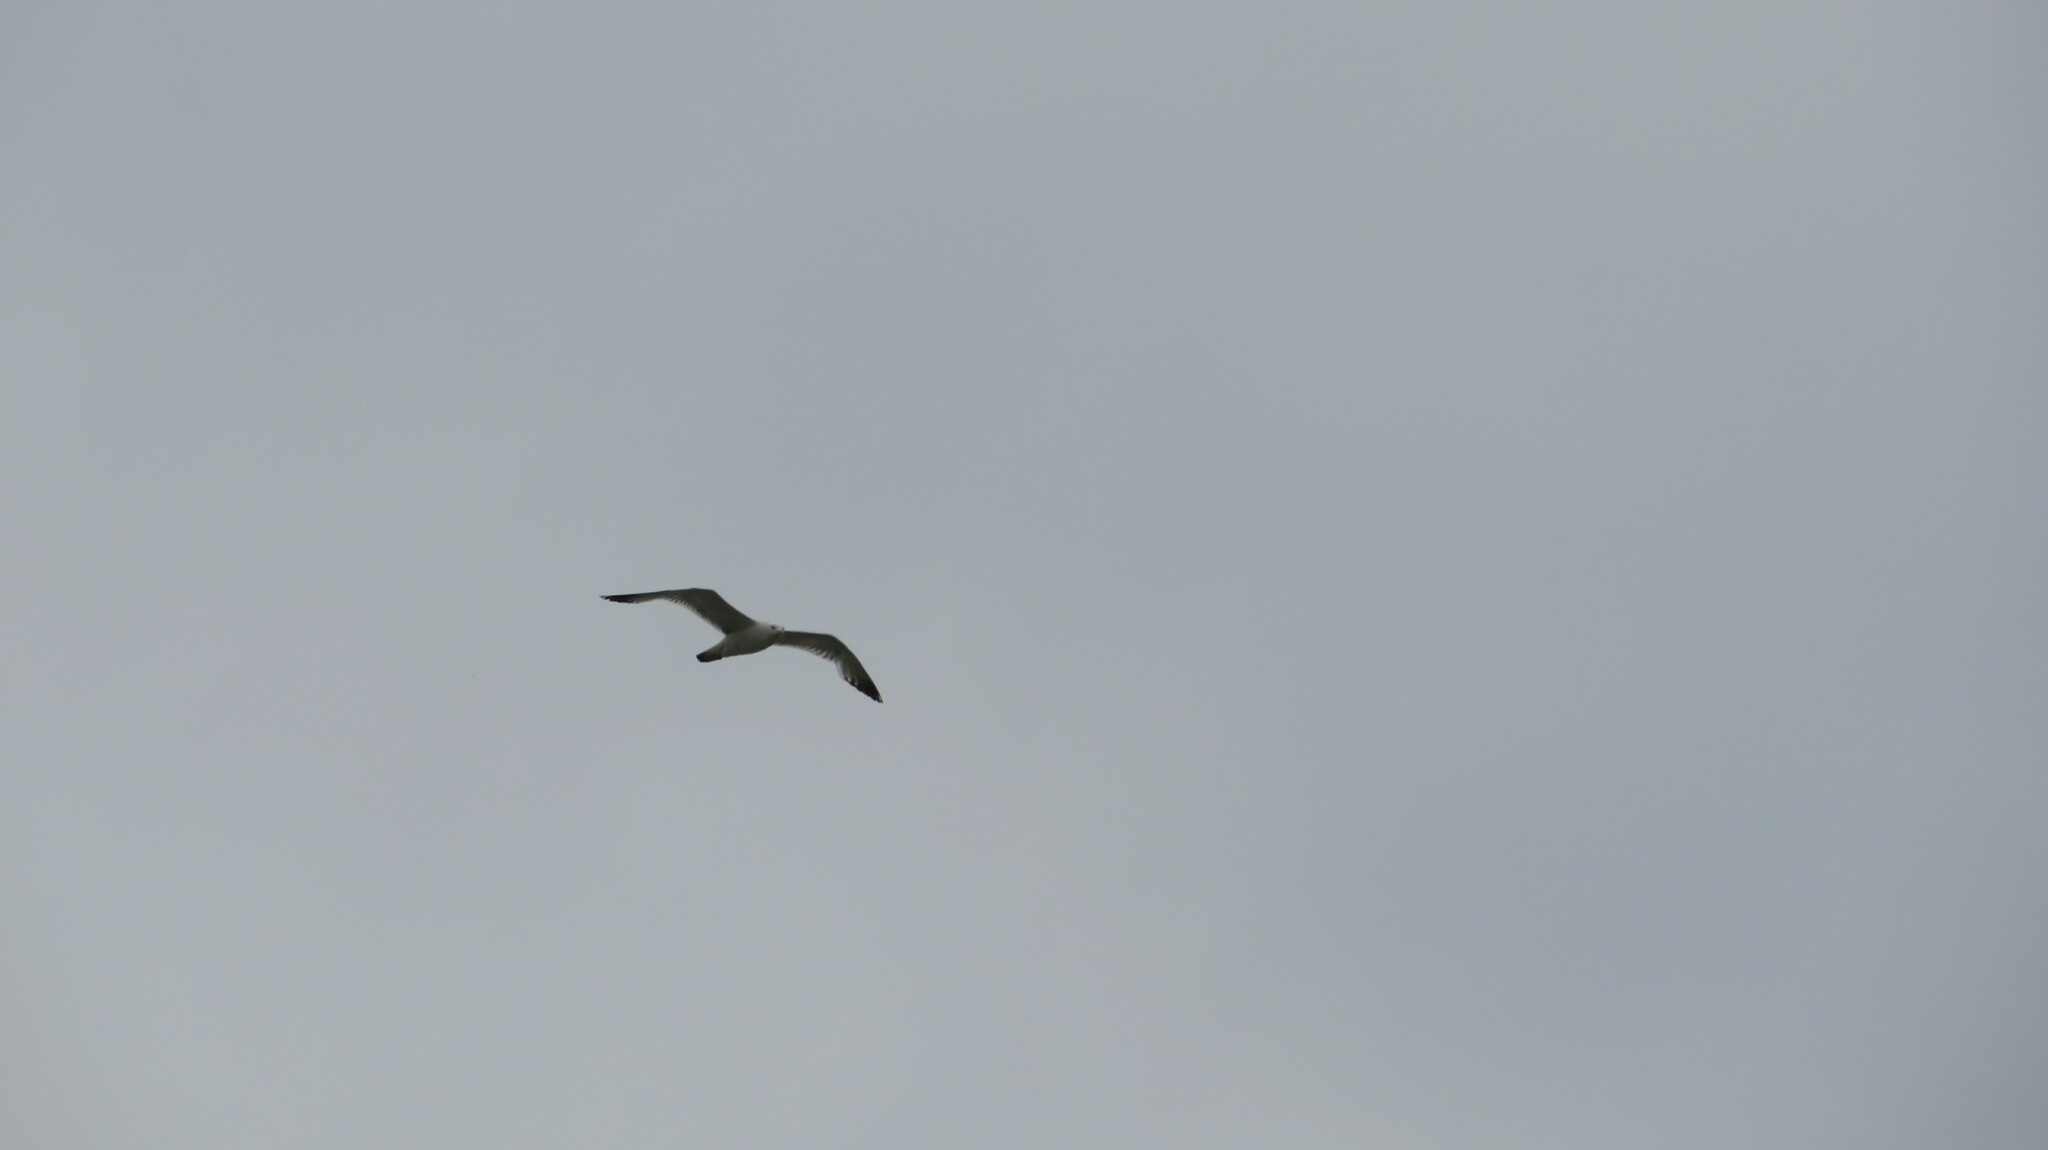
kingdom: Animalia
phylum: Chordata
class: Aves
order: Charadriiformes
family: Laridae
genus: Larus
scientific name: Larus cachinnans
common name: Caspian gull
